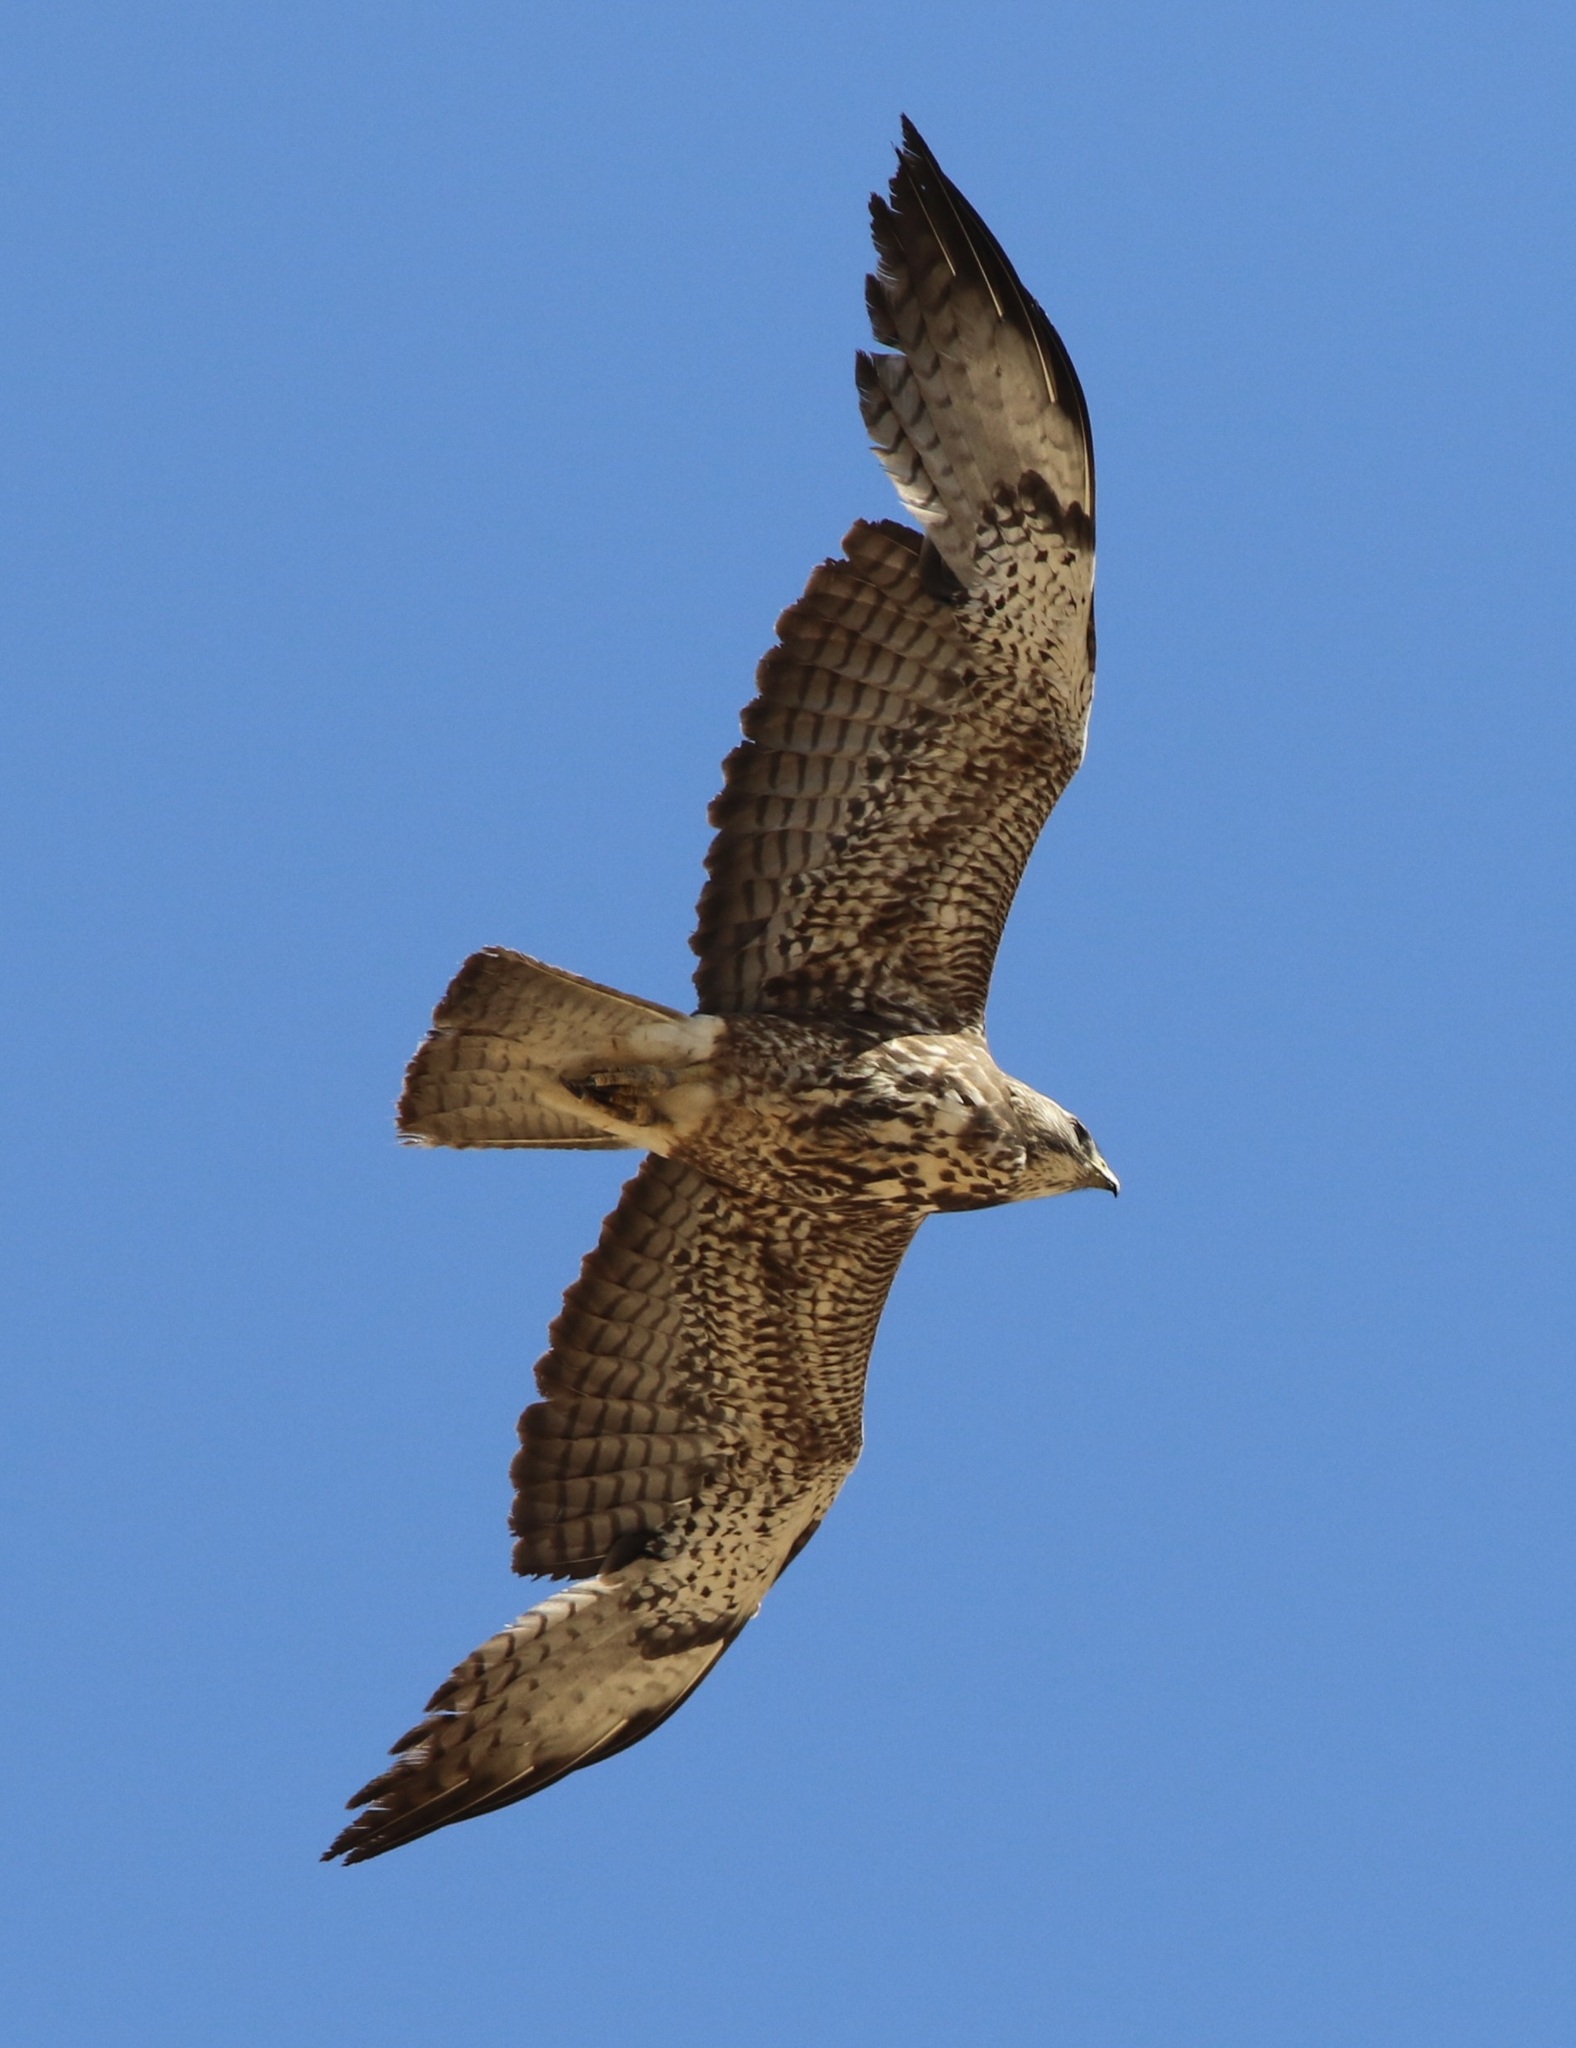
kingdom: Animalia
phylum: Chordata
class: Aves
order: Accipitriformes
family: Accipitridae
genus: Buteo
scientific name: Buteo swainsoni
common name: Swainson's hawk
